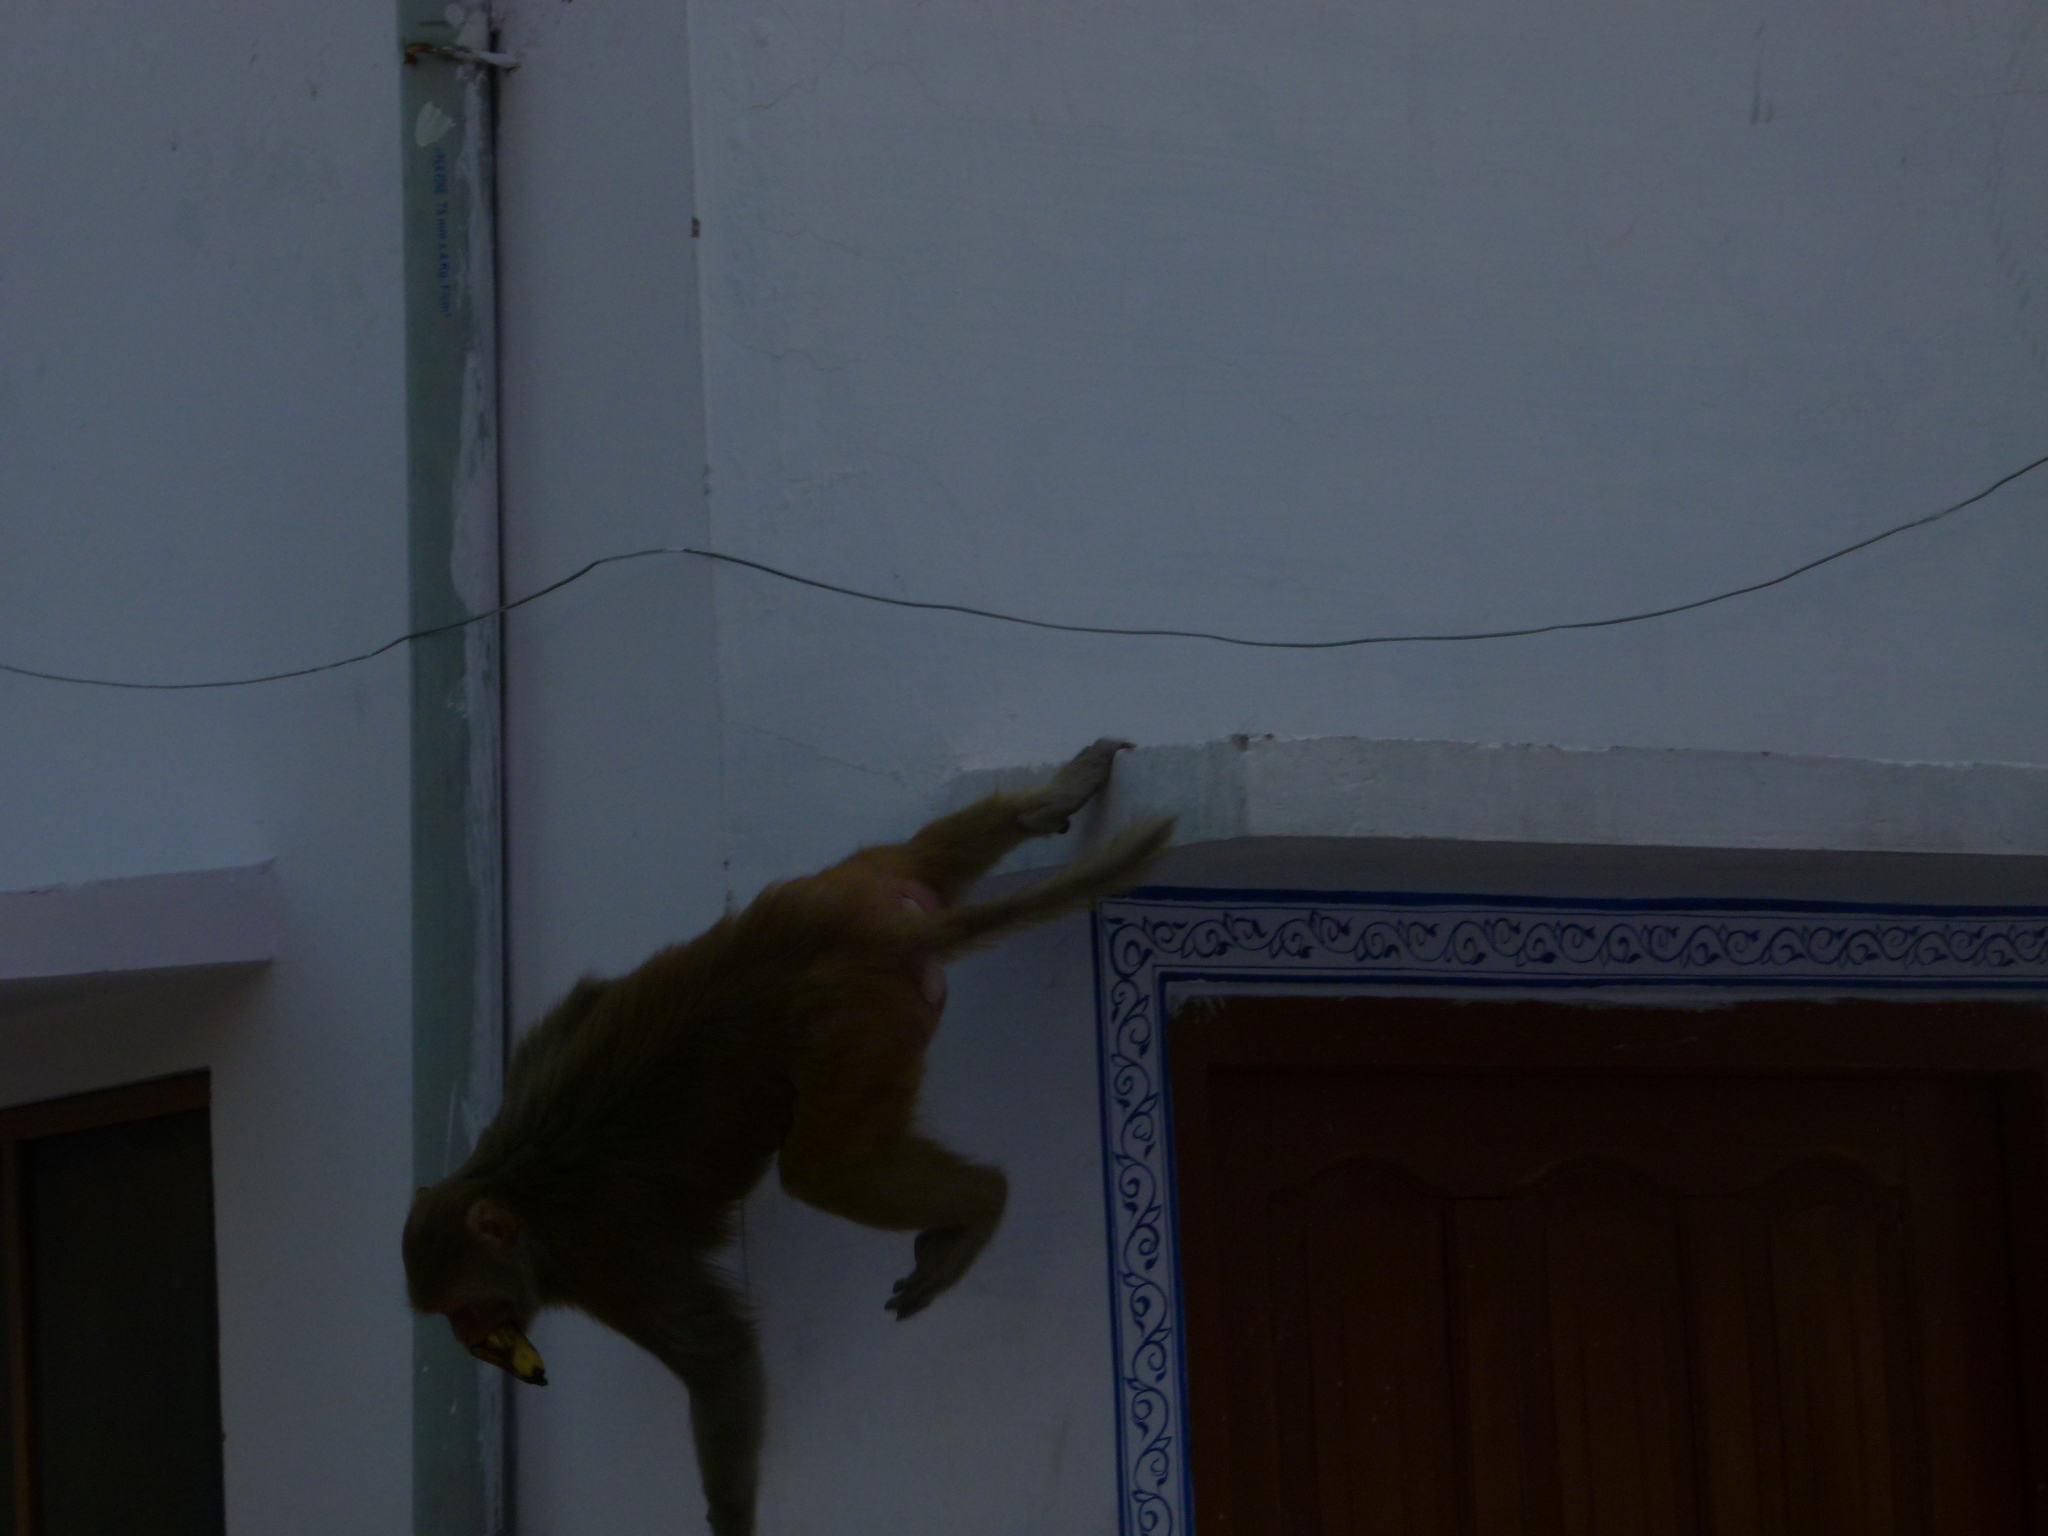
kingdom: Animalia
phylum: Chordata
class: Mammalia
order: Primates
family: Cercopithecidae
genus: Macaca
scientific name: Macaca mulatta
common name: Rhesus monkey
